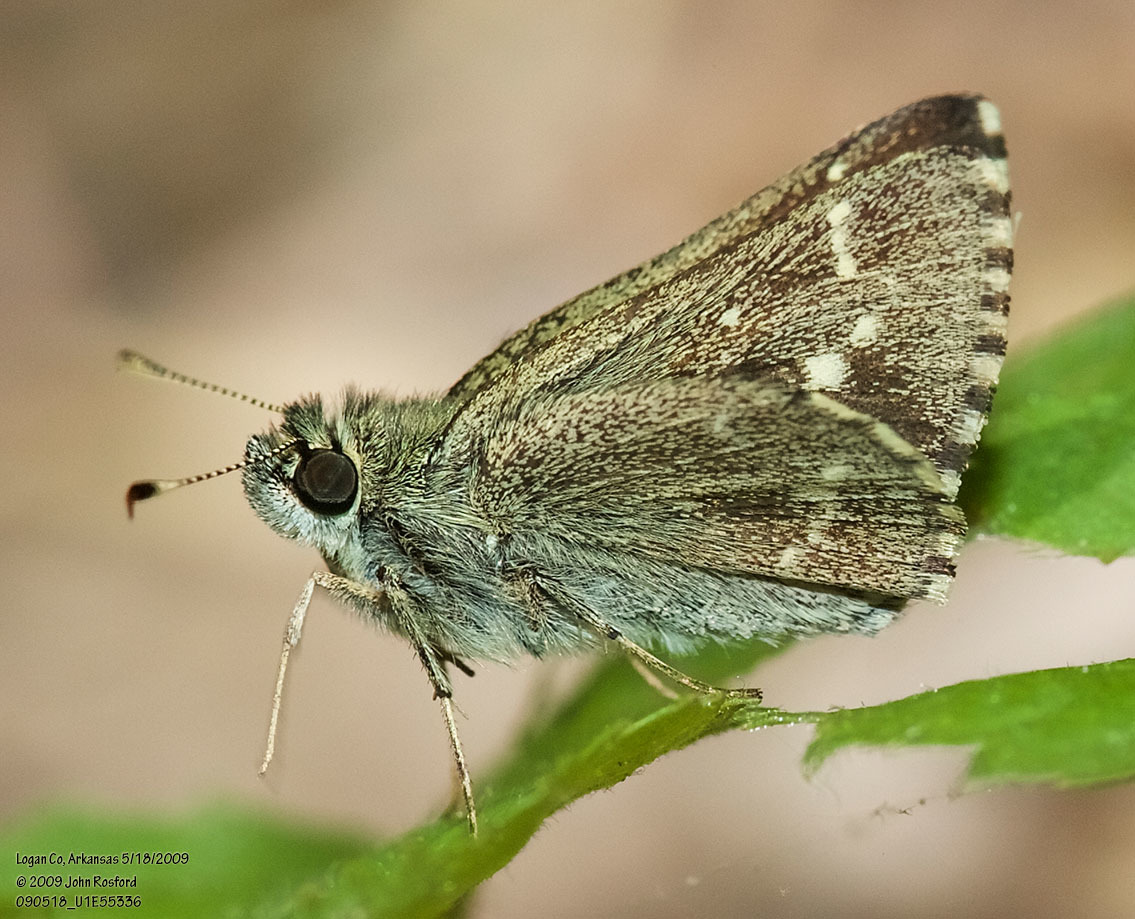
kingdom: Animalia
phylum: Arthropoda
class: Insecta
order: Lepidoptera
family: Hesperiidae
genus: Mastor
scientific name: Mastor hegon
